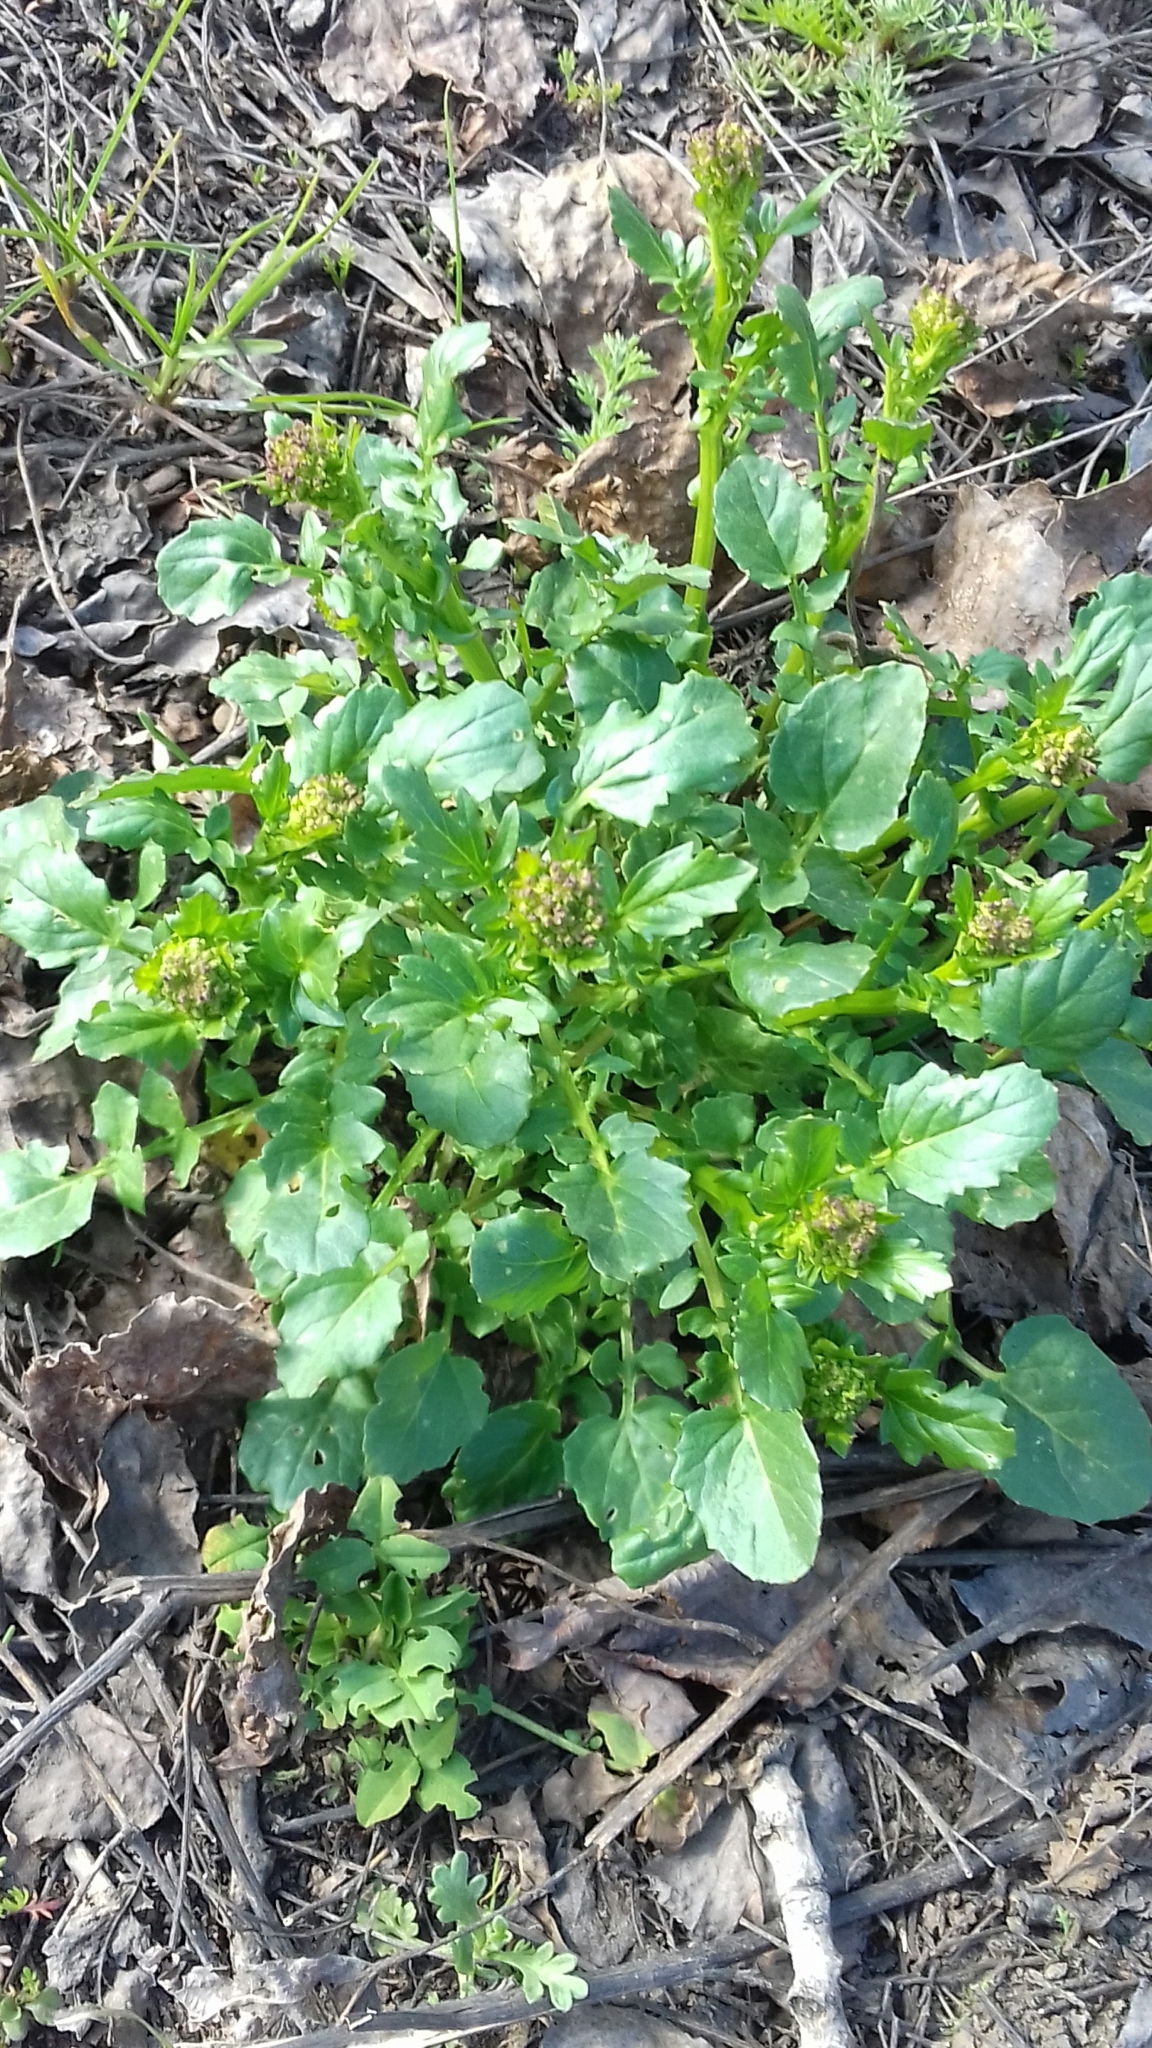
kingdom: Plantae
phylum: Tracheophyta
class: Magnoliopsida
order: Brassicales
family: Brassicaceae
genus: Barbarea
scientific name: Barbarea vulgaris
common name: Cressy-greens
